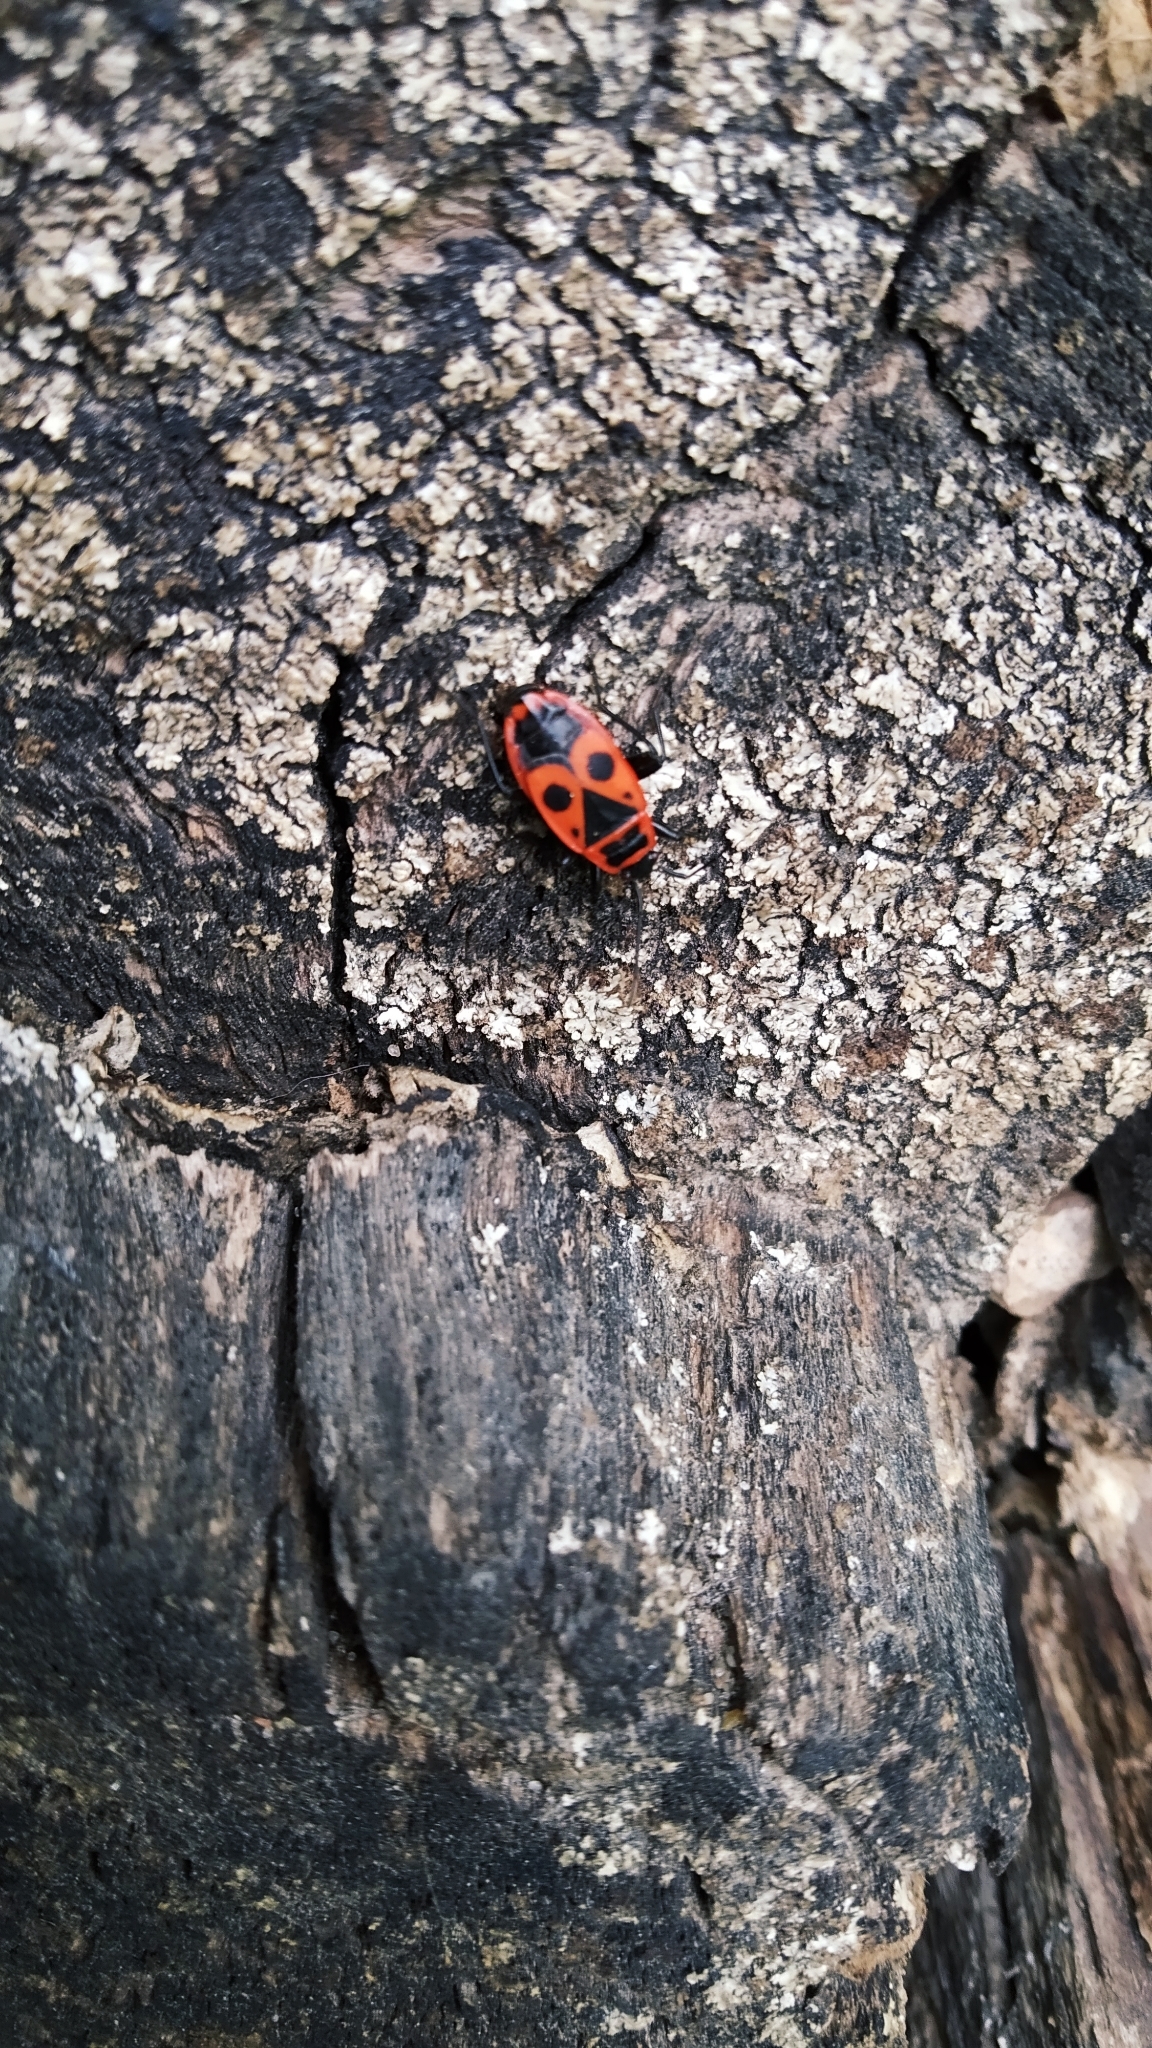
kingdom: Animalia
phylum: Arthropoda
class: Insecta
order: Hemiptera
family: Pyrrhocoridae
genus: Pyrrhocoris
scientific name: Pyrrhocoris apterus
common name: Firebug
